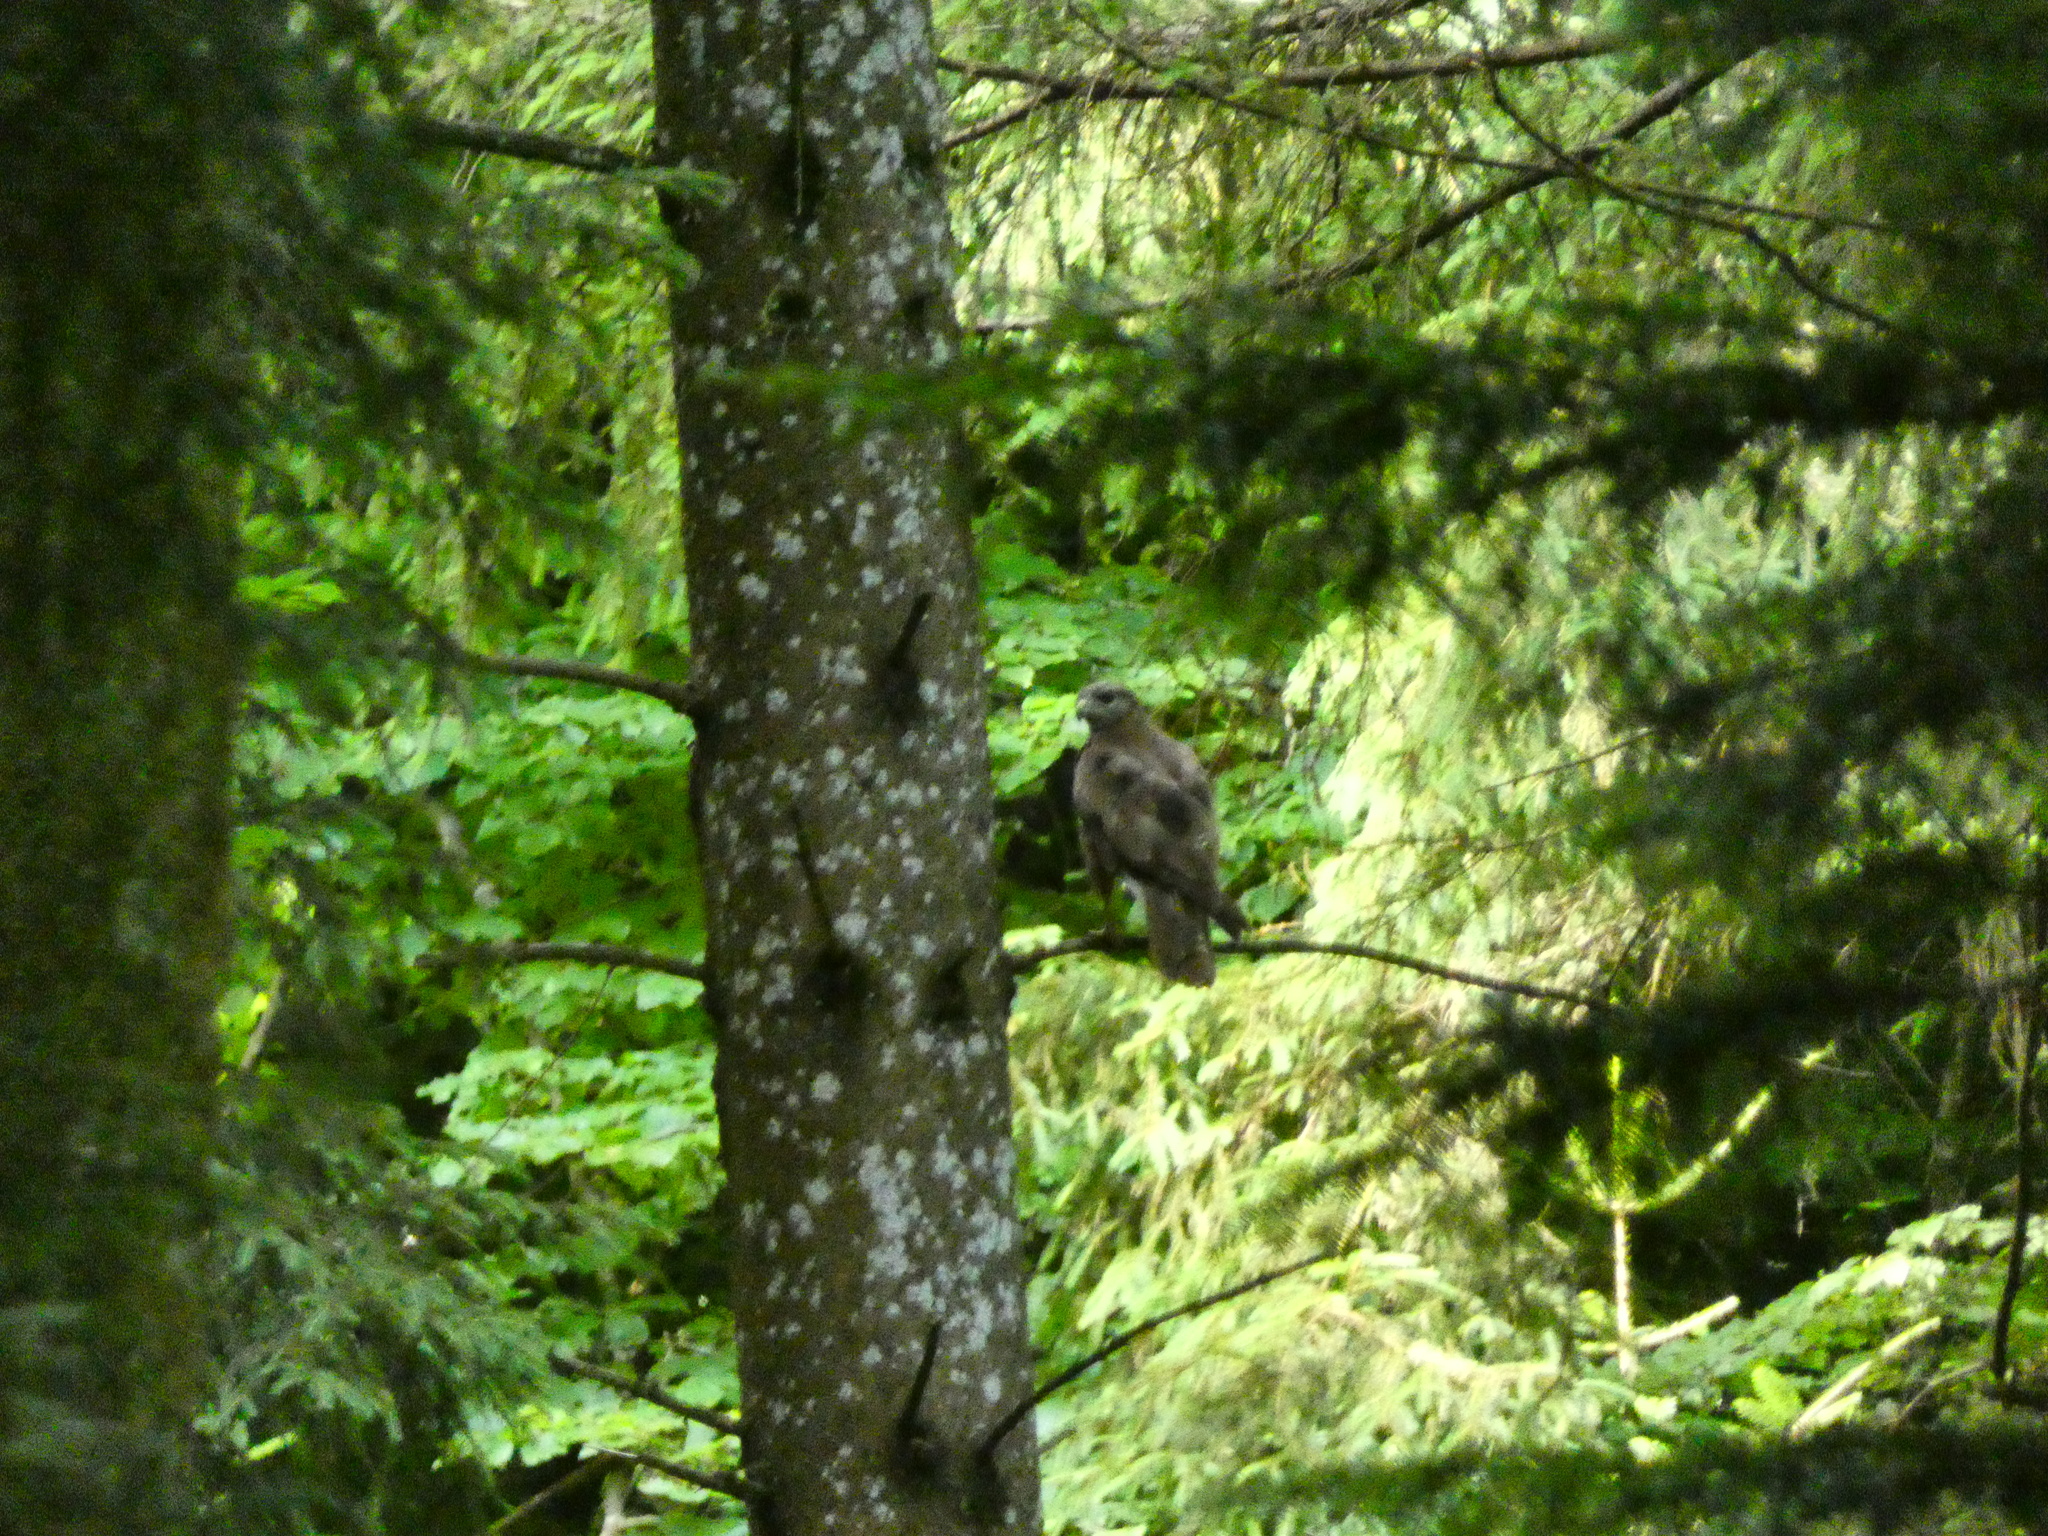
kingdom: Animalia
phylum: Chordata
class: Aves
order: Accipitriformes
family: Accipitridae
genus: Buteo
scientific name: Buteo buteo
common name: Common buzzard
